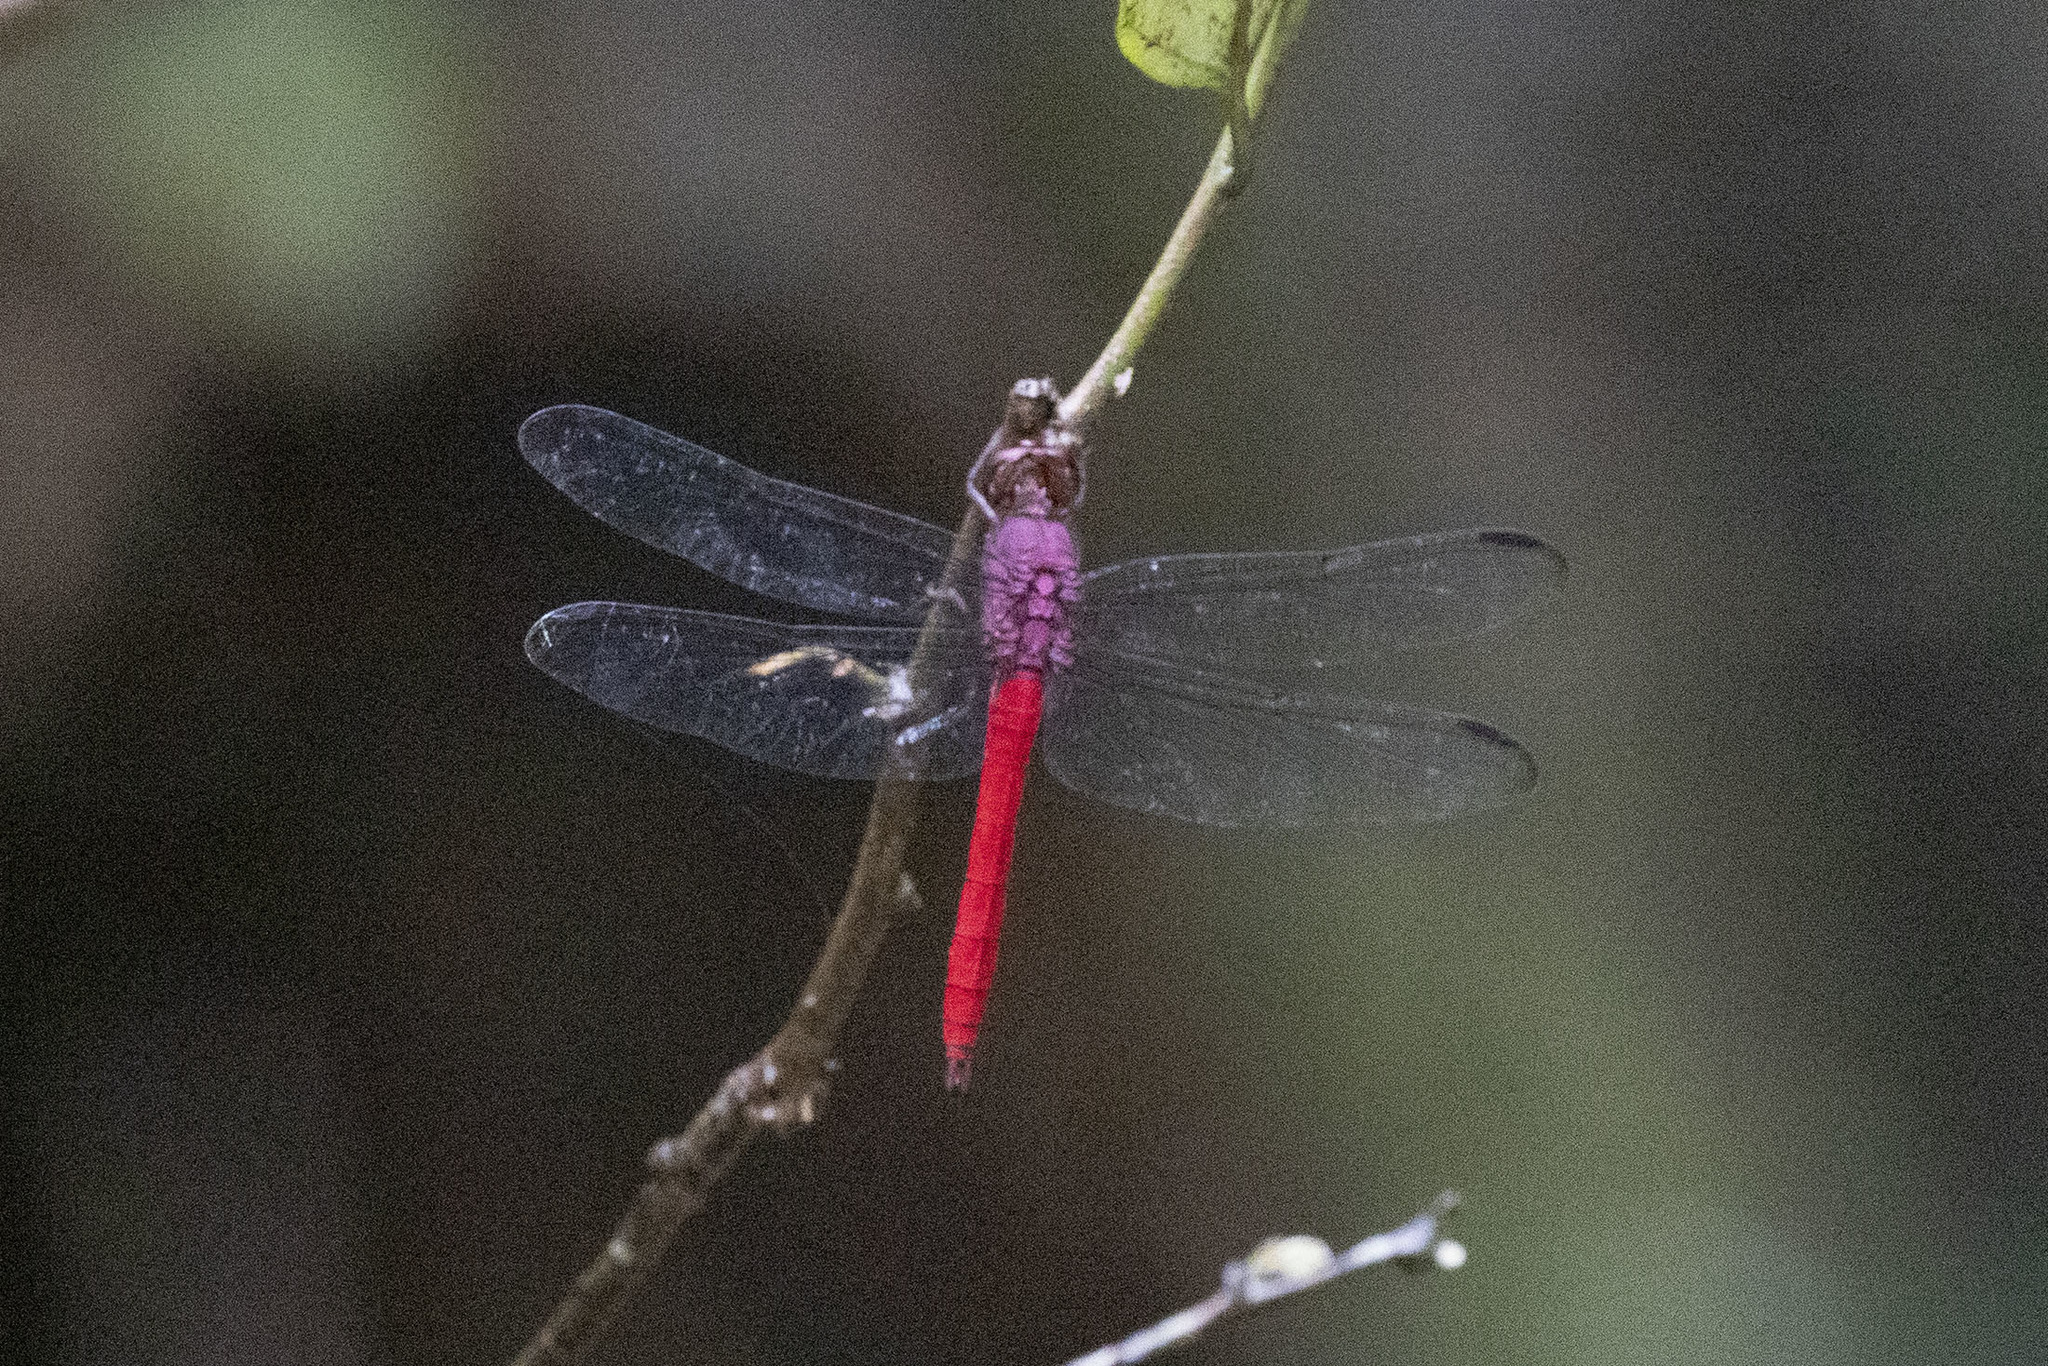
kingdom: Animalia
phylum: Arthropoda
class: Insecta
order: Odonata
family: Libellulidae
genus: Orthemis
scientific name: Orthemis schmidti
